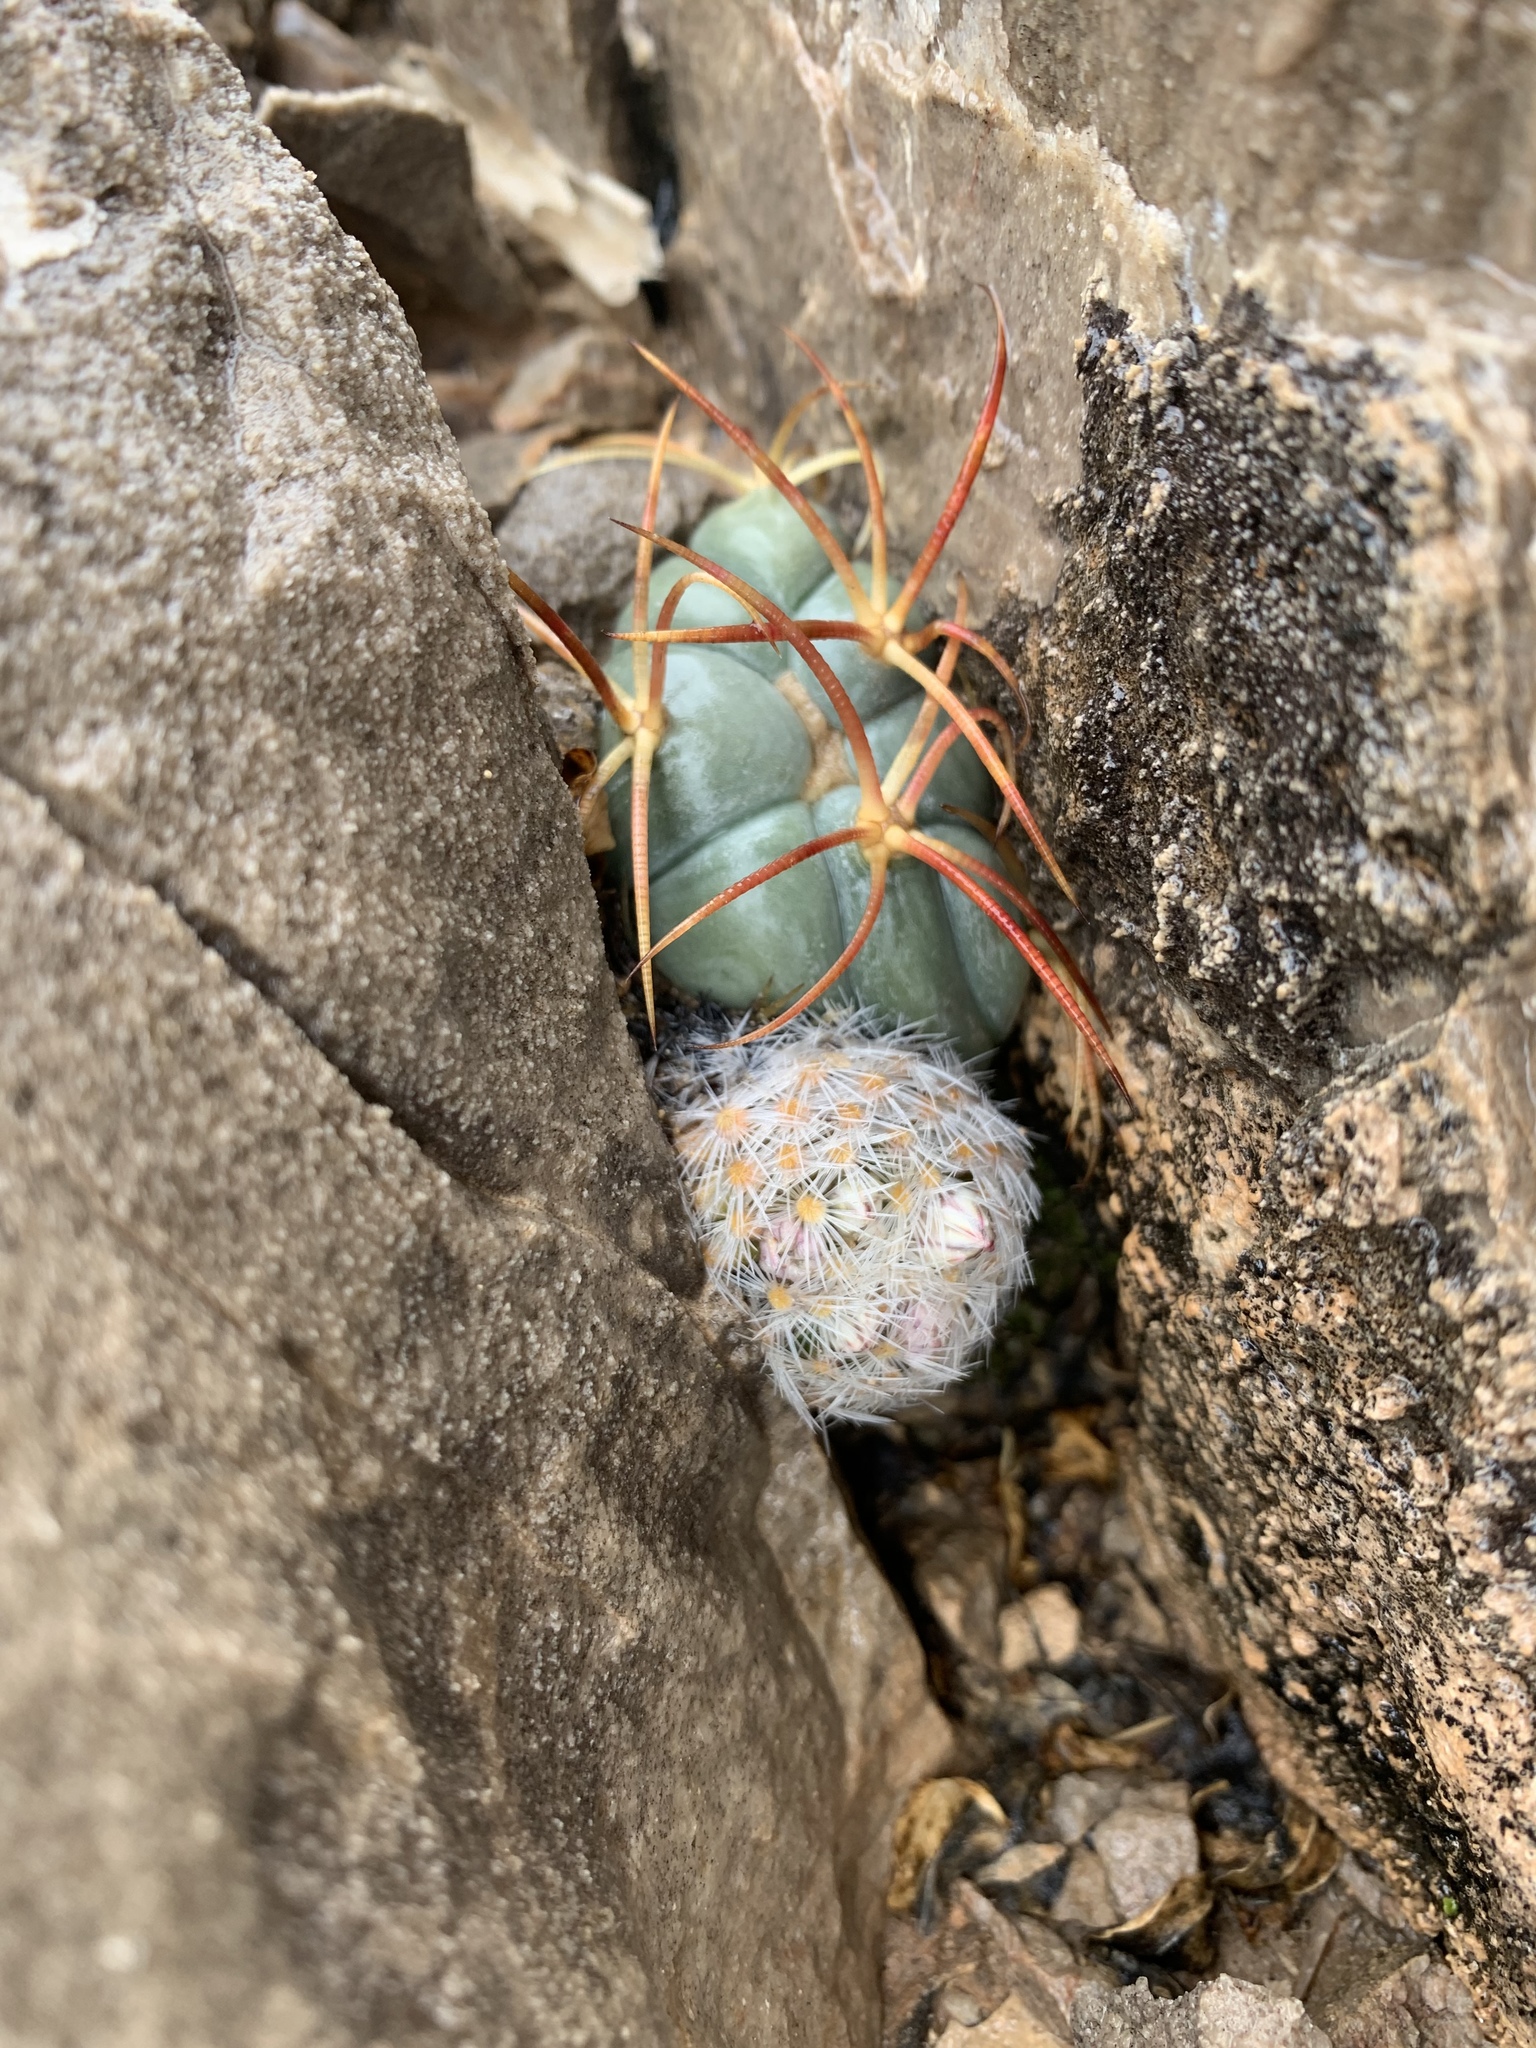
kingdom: Plantae
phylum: Tracheophyta
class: Magnoliopsida
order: Caryophyllales
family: Cactaceae
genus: Echinocactus
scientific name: Echinocactus horizonthalonius
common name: Devilshead
